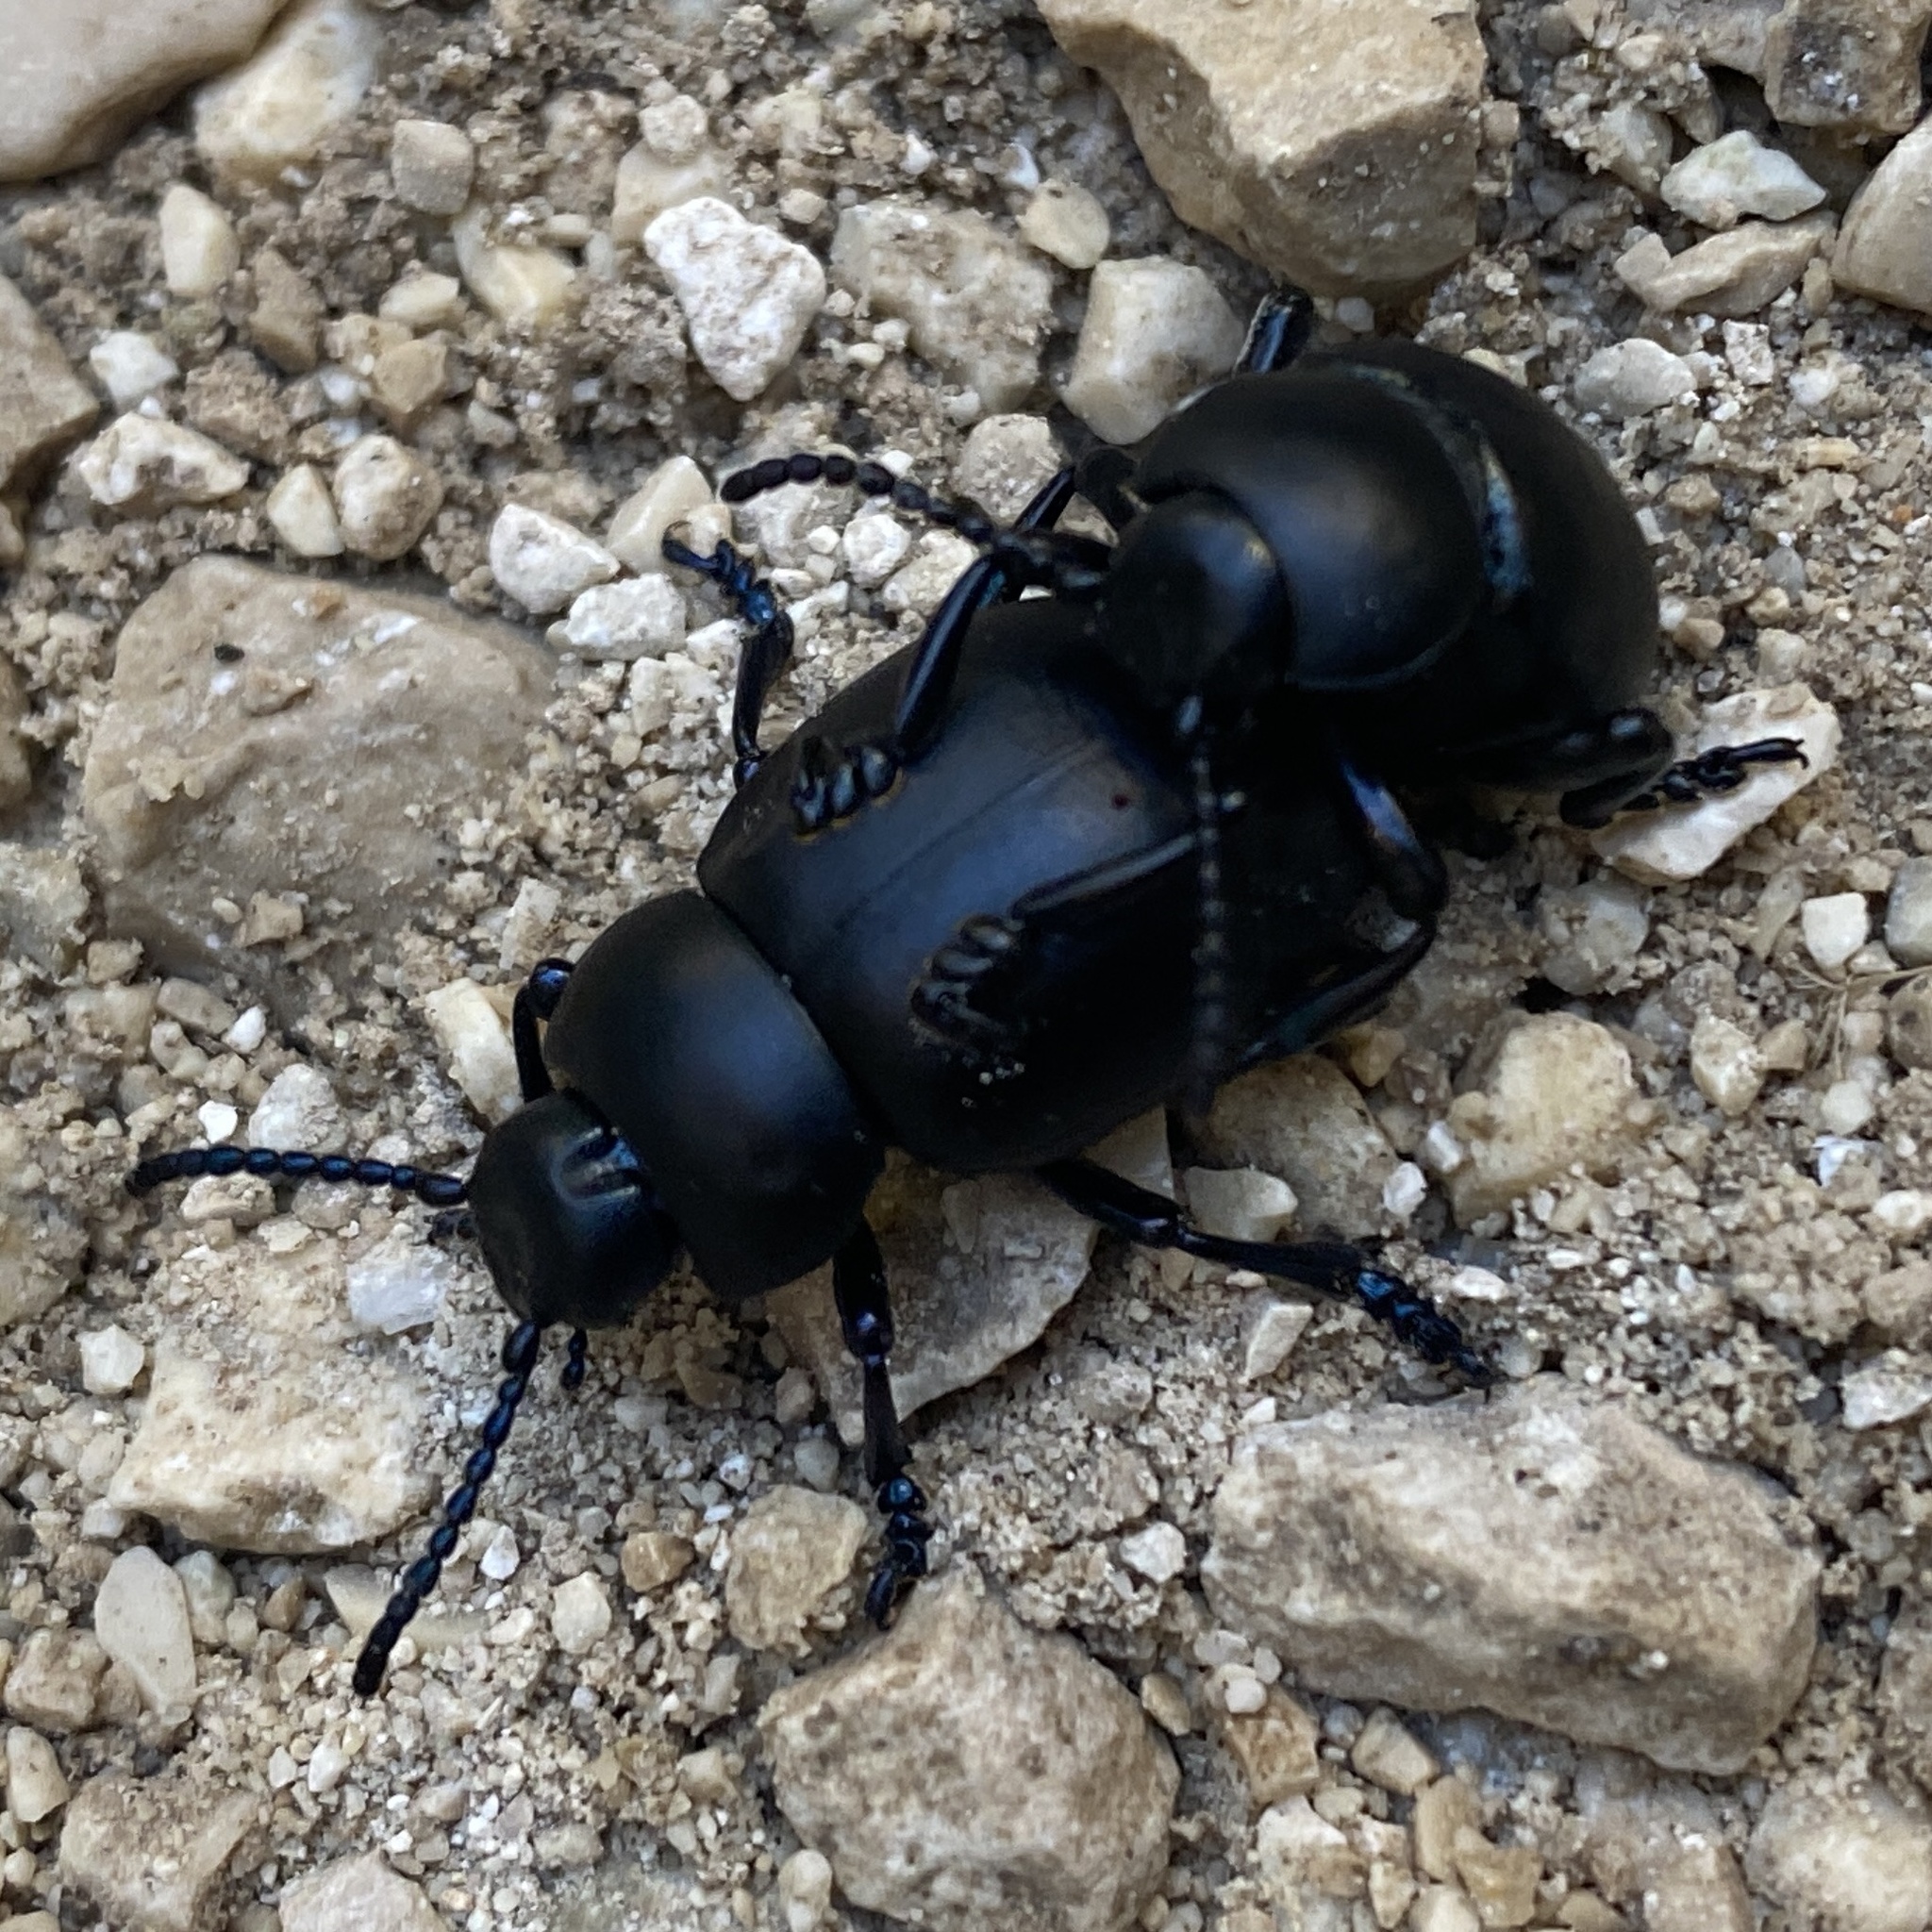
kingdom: Animalia
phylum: Arthropoda
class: Insecta
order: Coleoptera
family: Chrysomelidae
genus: Timarcha
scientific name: Timarcha nicaeensis
